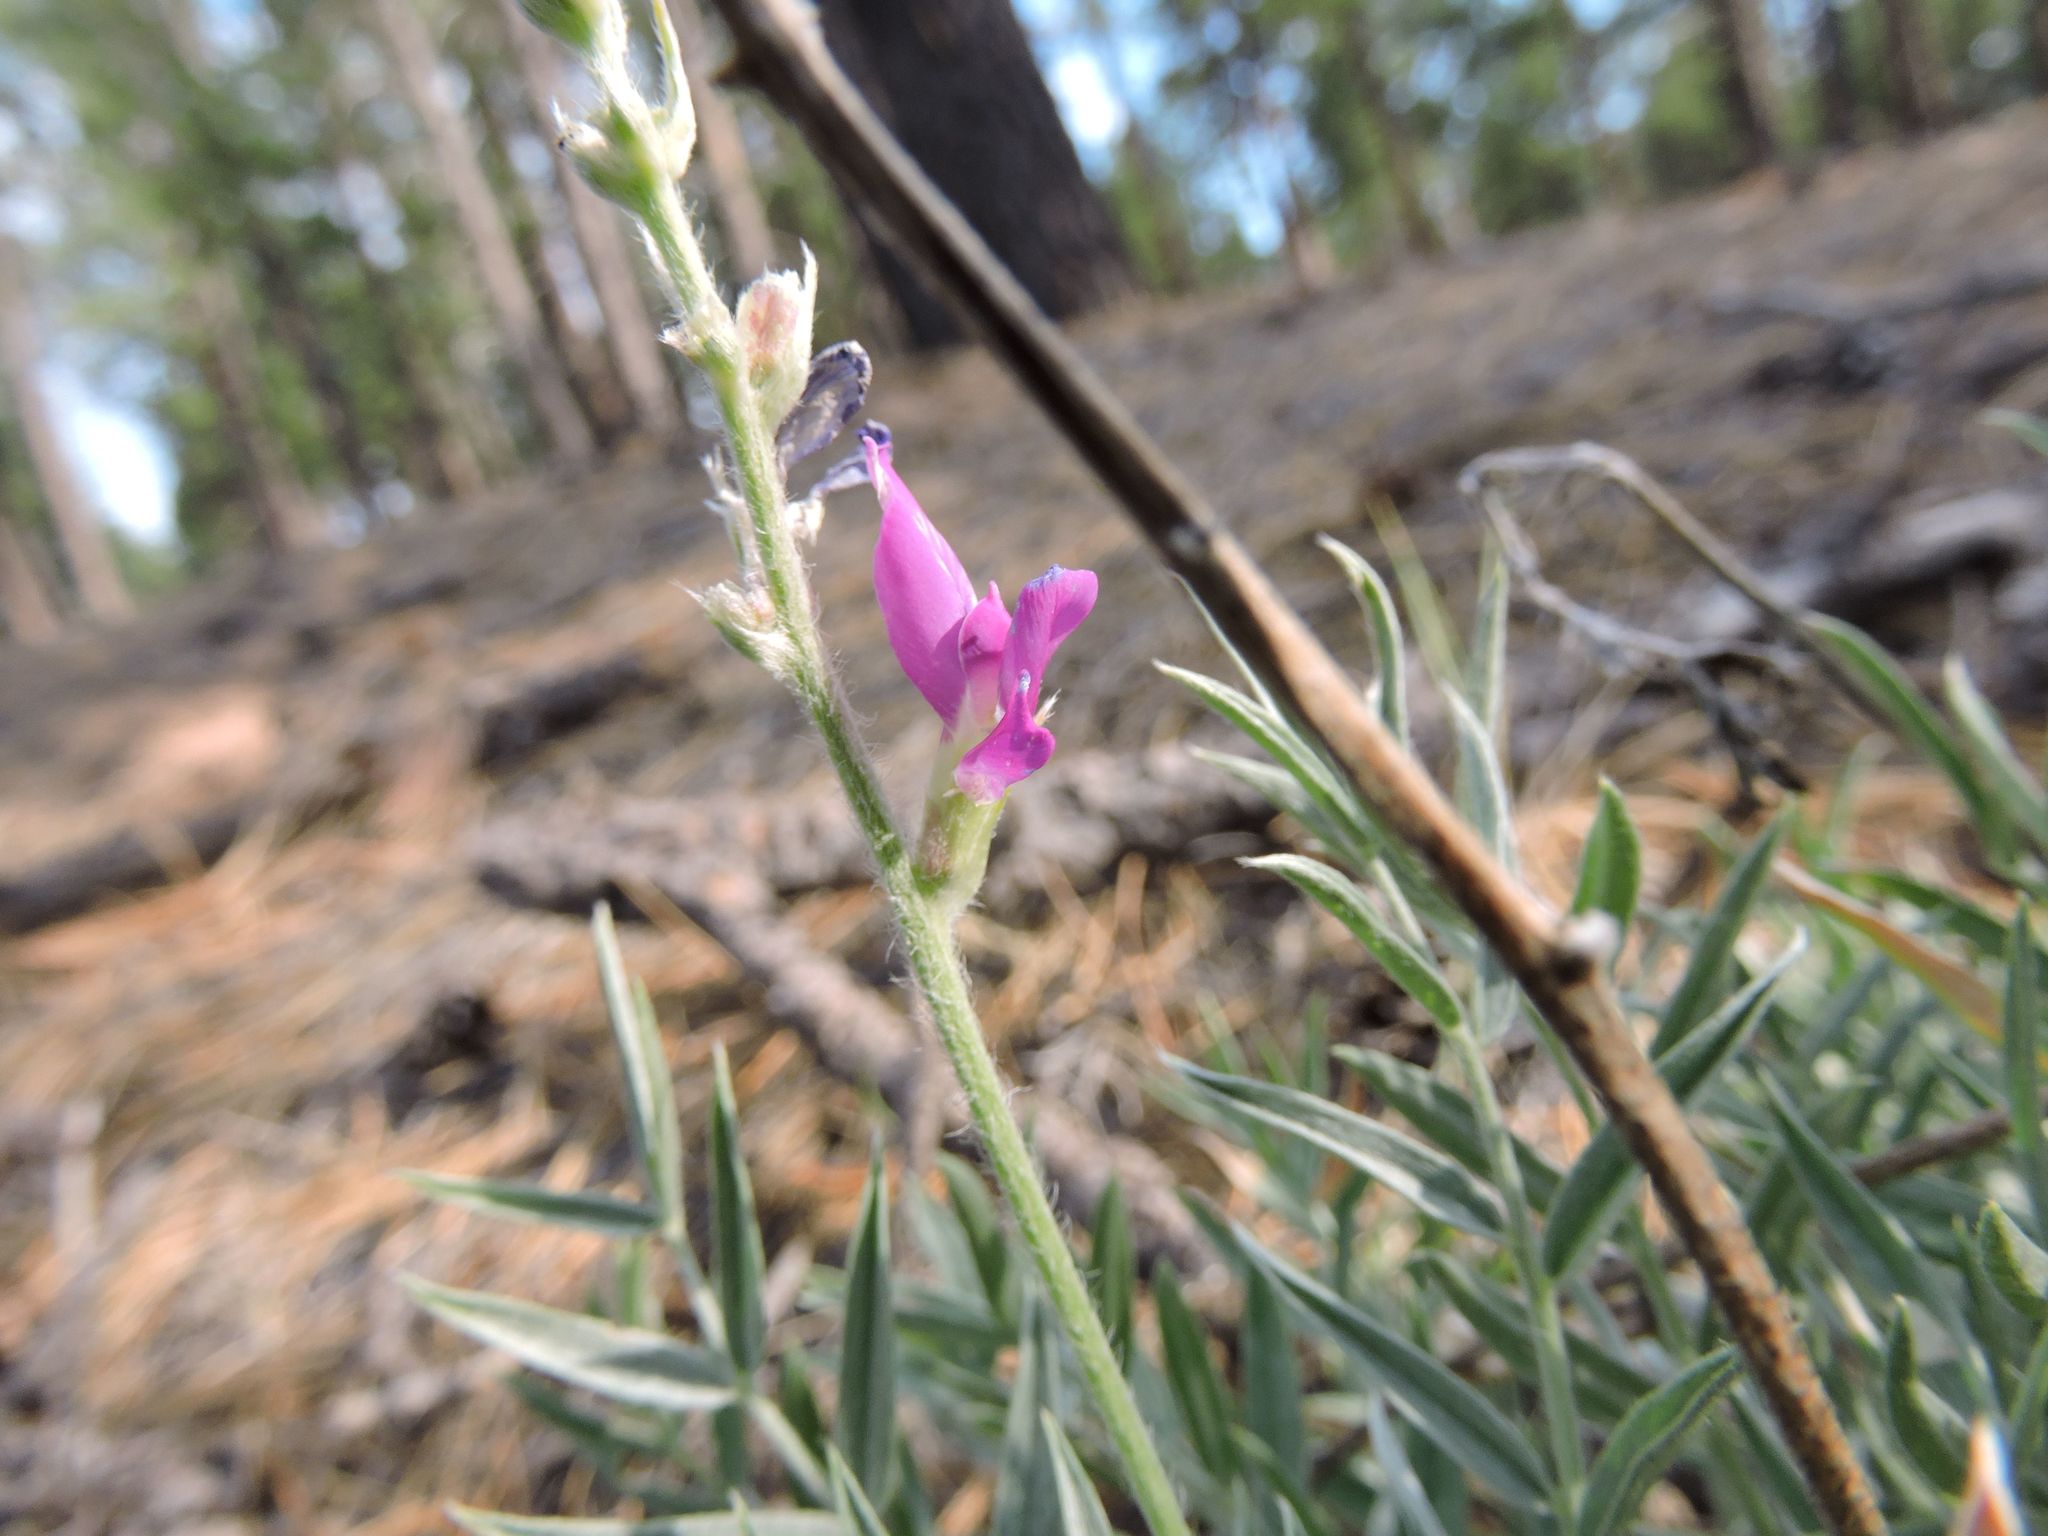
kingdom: Plantae
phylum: Tracheophyta
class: Magnoliopsida
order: Fabales
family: Fabaceae
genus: Oxytropis
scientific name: Oxytropis lambertii
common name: Purple locoweed
